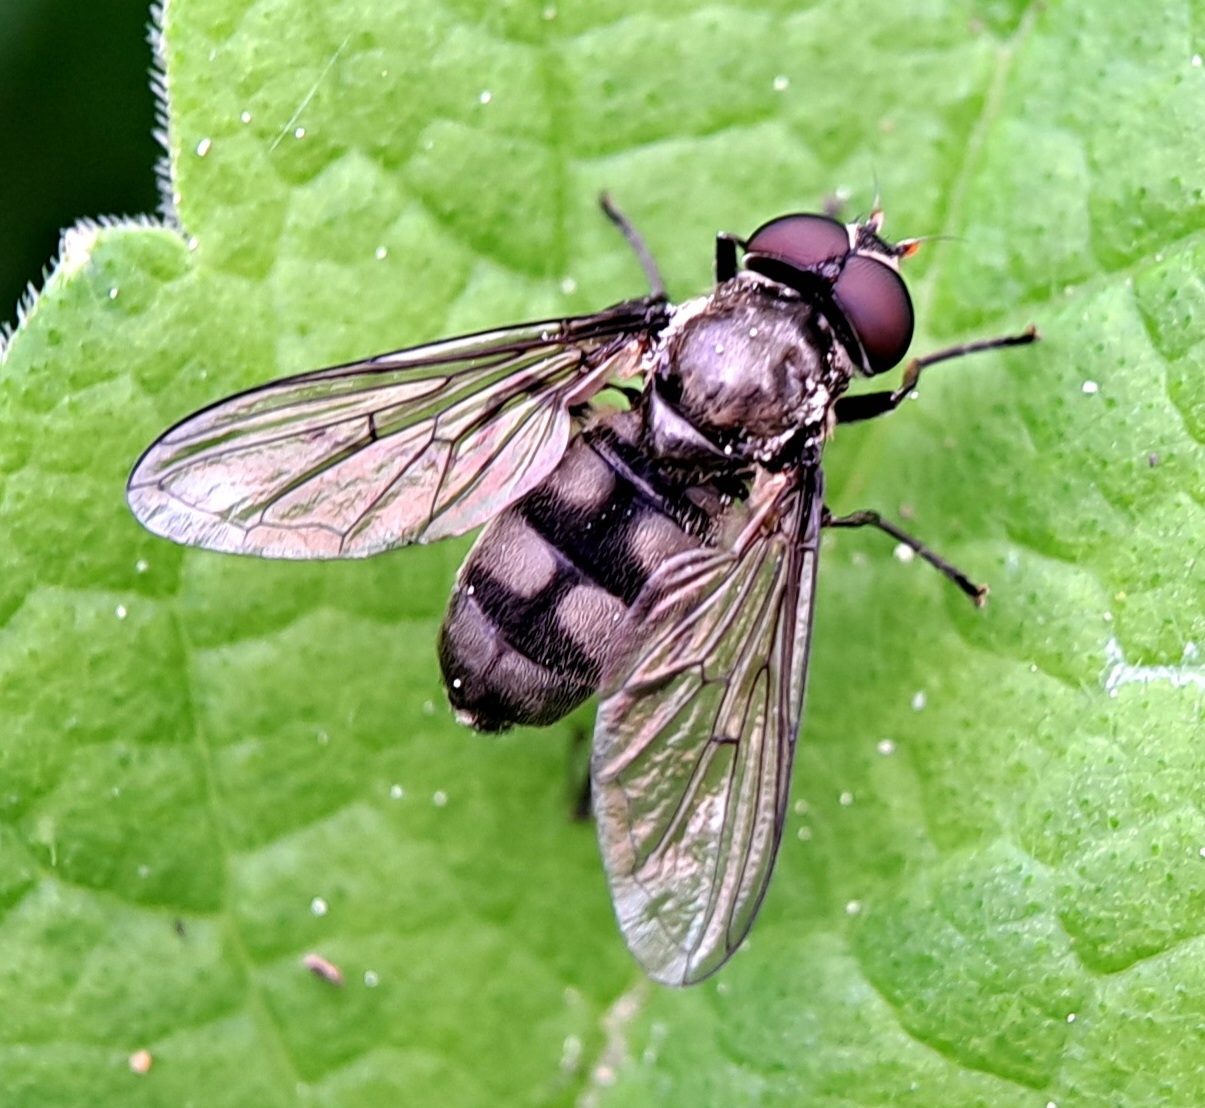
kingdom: Animalia
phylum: Arthropoda
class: Insecta
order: Diptera
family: Syrphidae
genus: Portevinia
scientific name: Portevinia maculata
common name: Ramson's hoverfly
